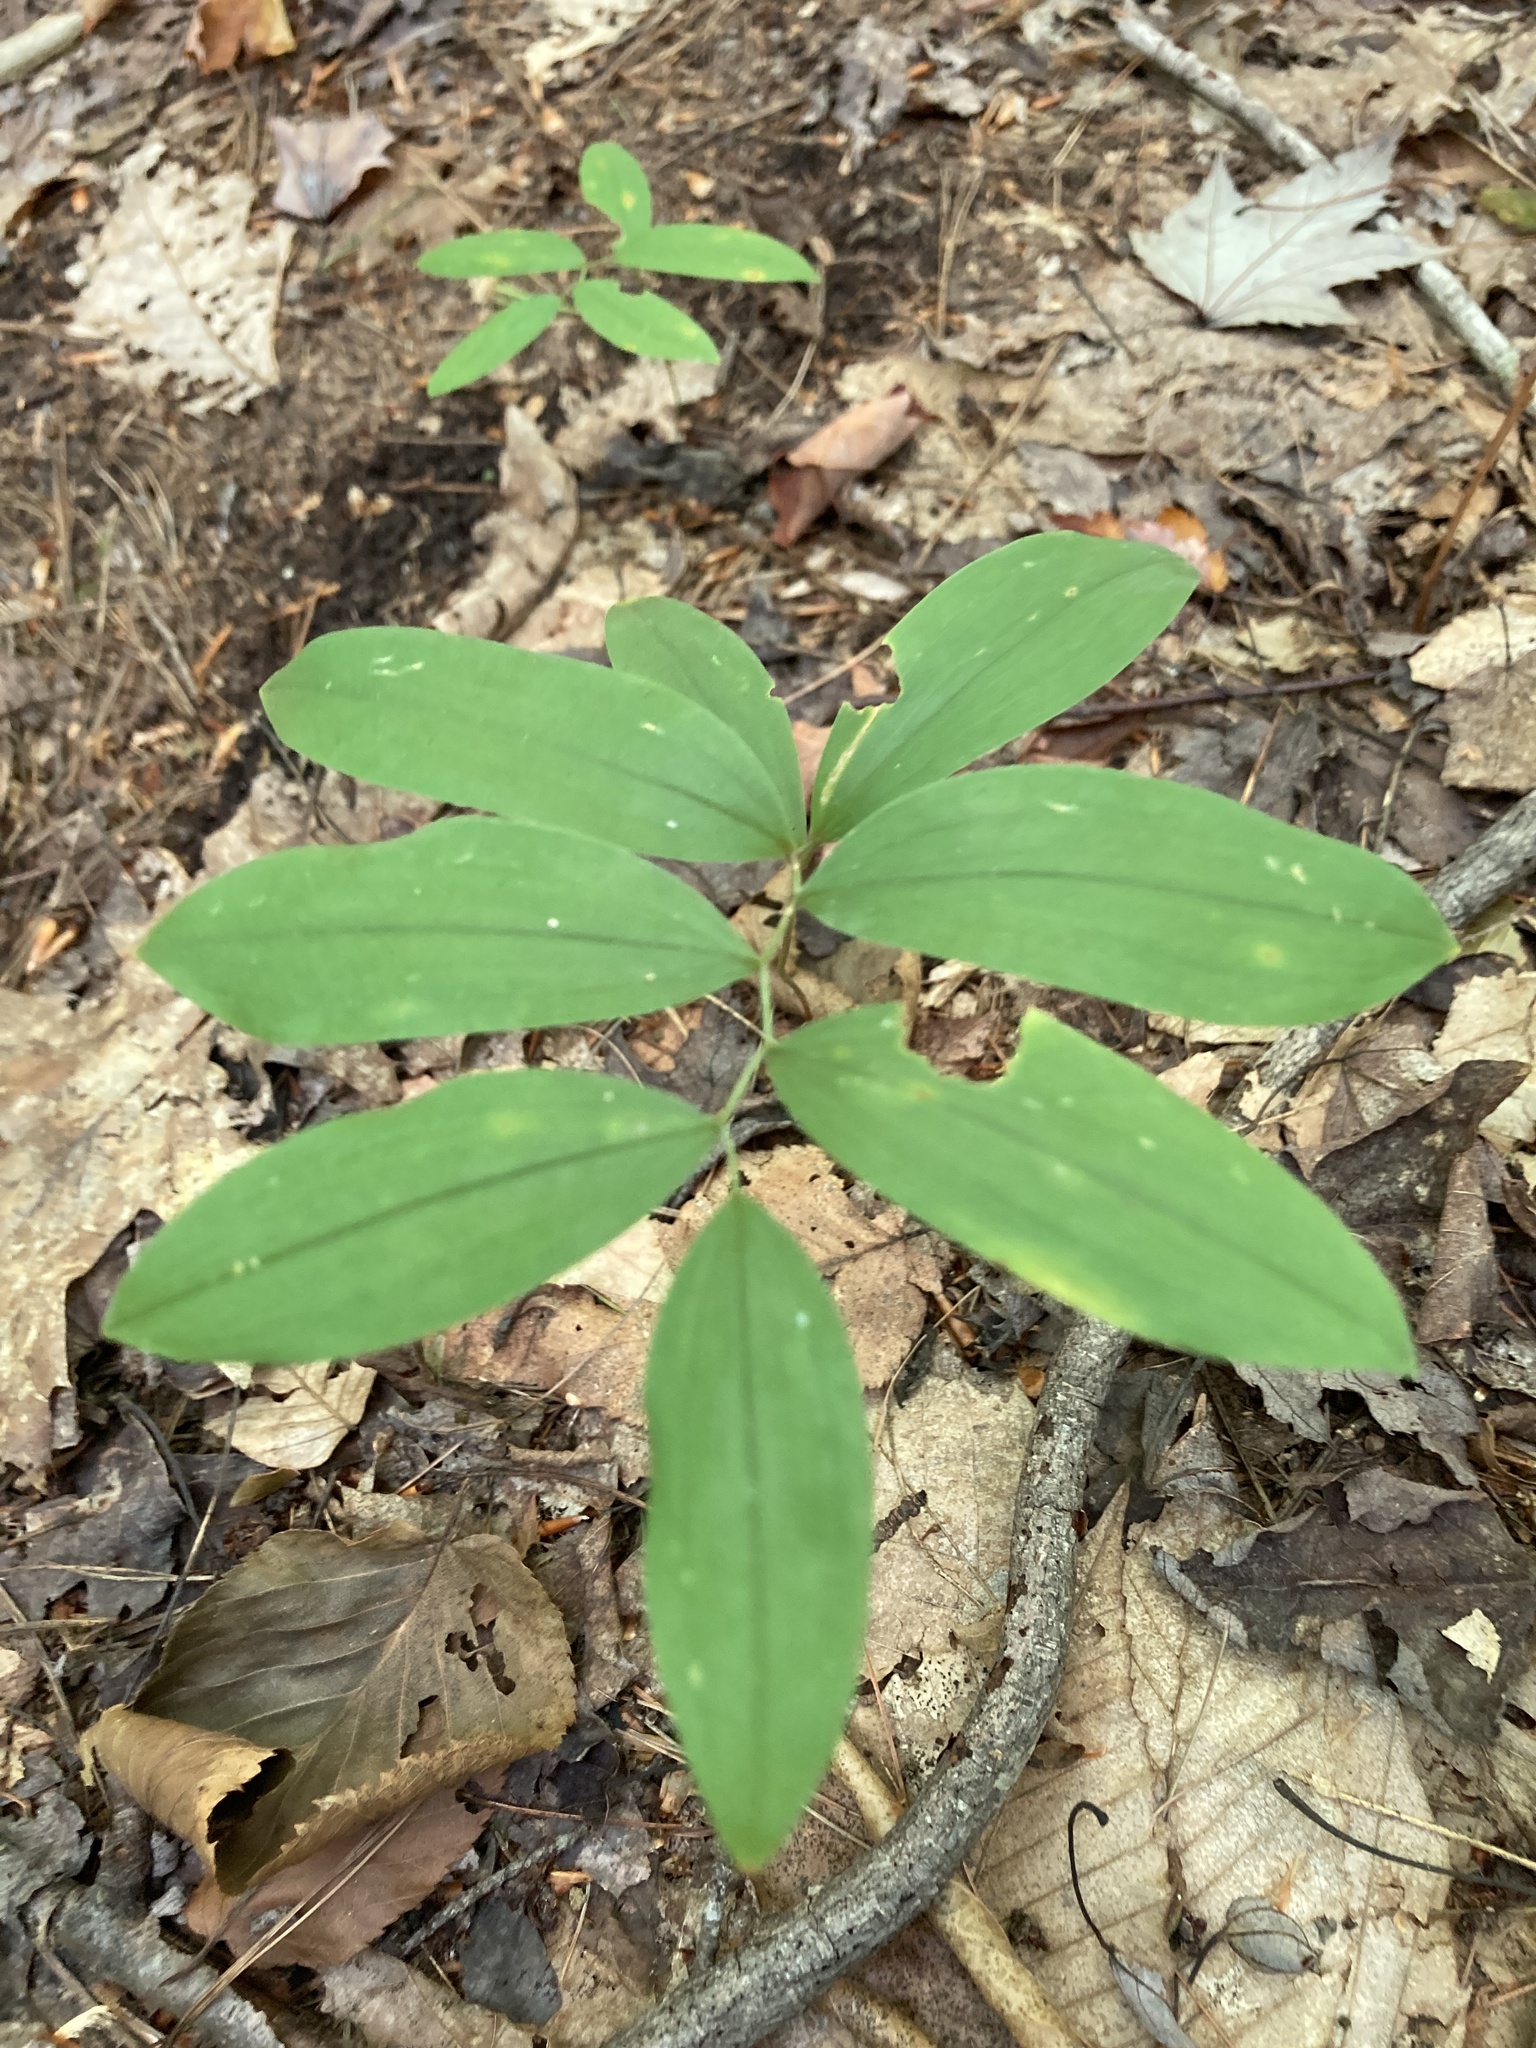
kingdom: Plantae
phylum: Tracheophyta
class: Liliopsida
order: Liliales
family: Colchicaceae
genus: Uvularia
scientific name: Uvularia sessilifolia
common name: Straw-lily
